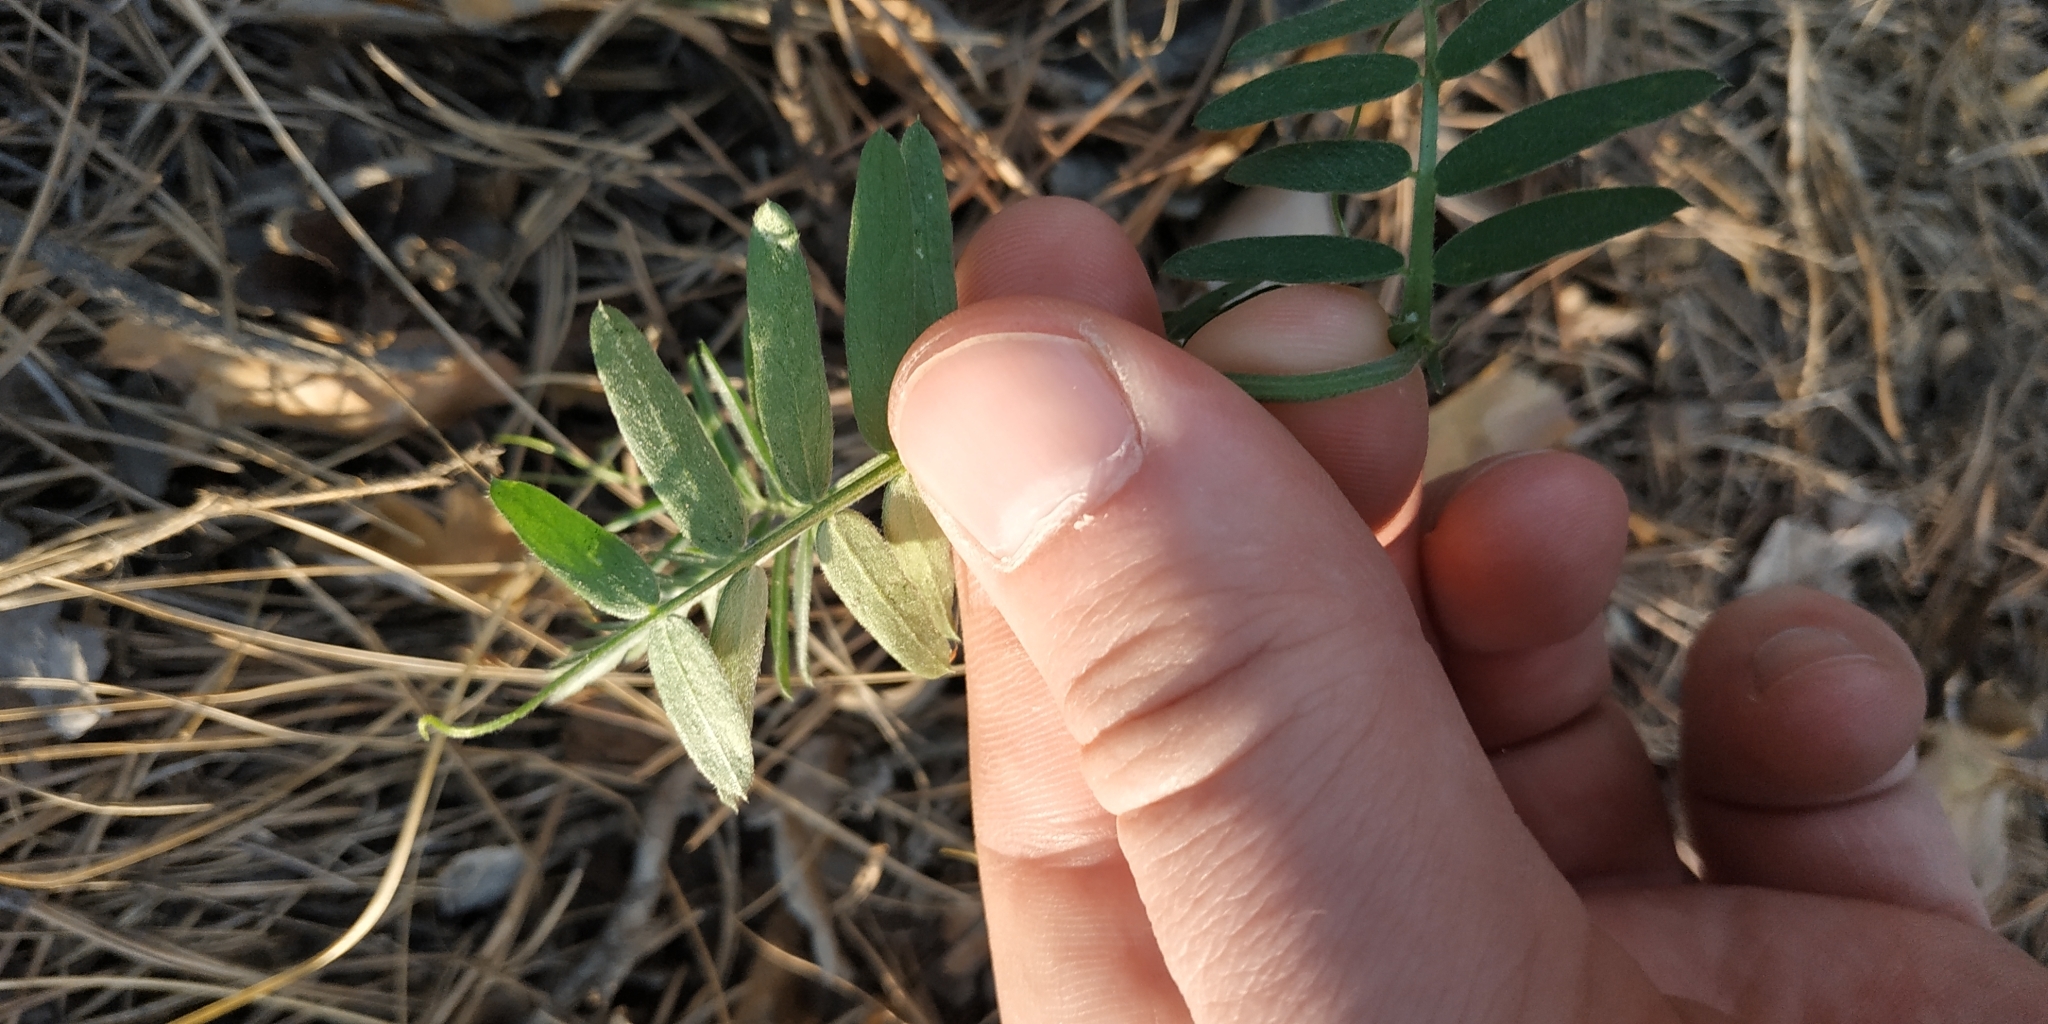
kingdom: Plantae
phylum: Tracheophyta
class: Magnoliopsida
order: Fabales
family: Fabaceae
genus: Vicia
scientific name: Vicia cracca
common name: Bird vetch
